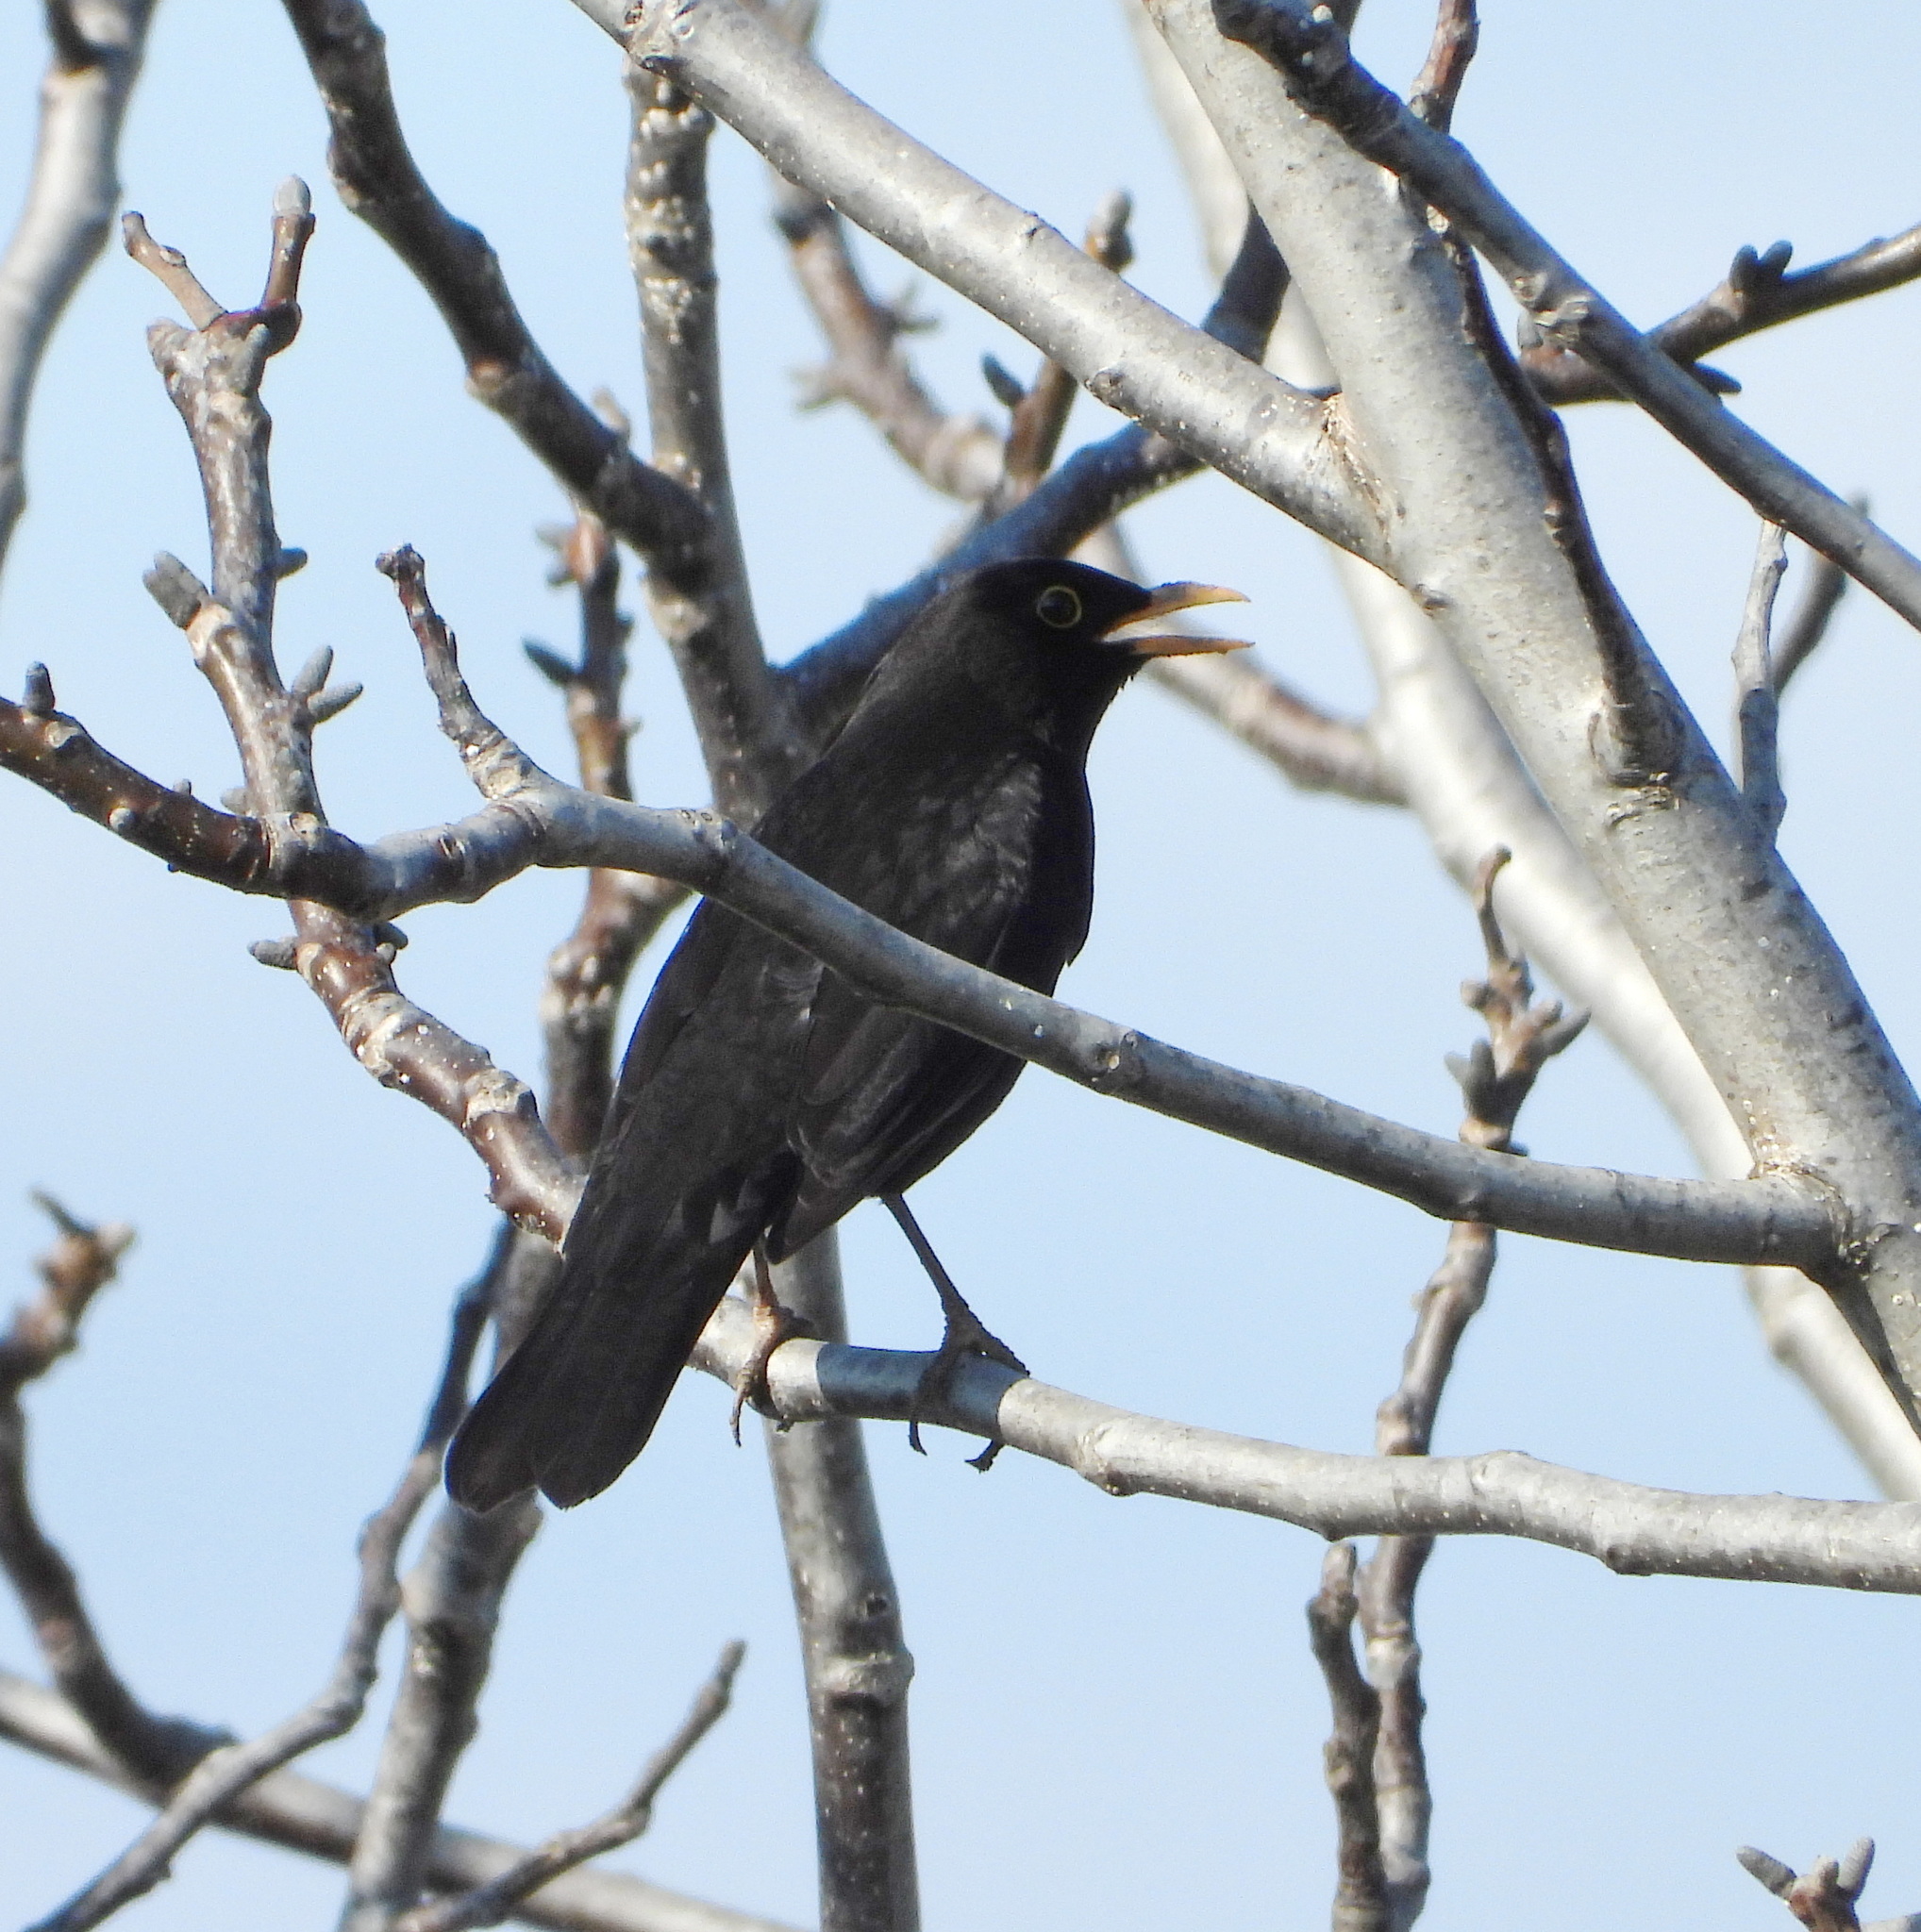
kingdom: Animalia
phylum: Chordata
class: Aves
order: Passeriformes
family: Turdidae
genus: Turdus
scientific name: Turdus merula
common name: Common blackbird
